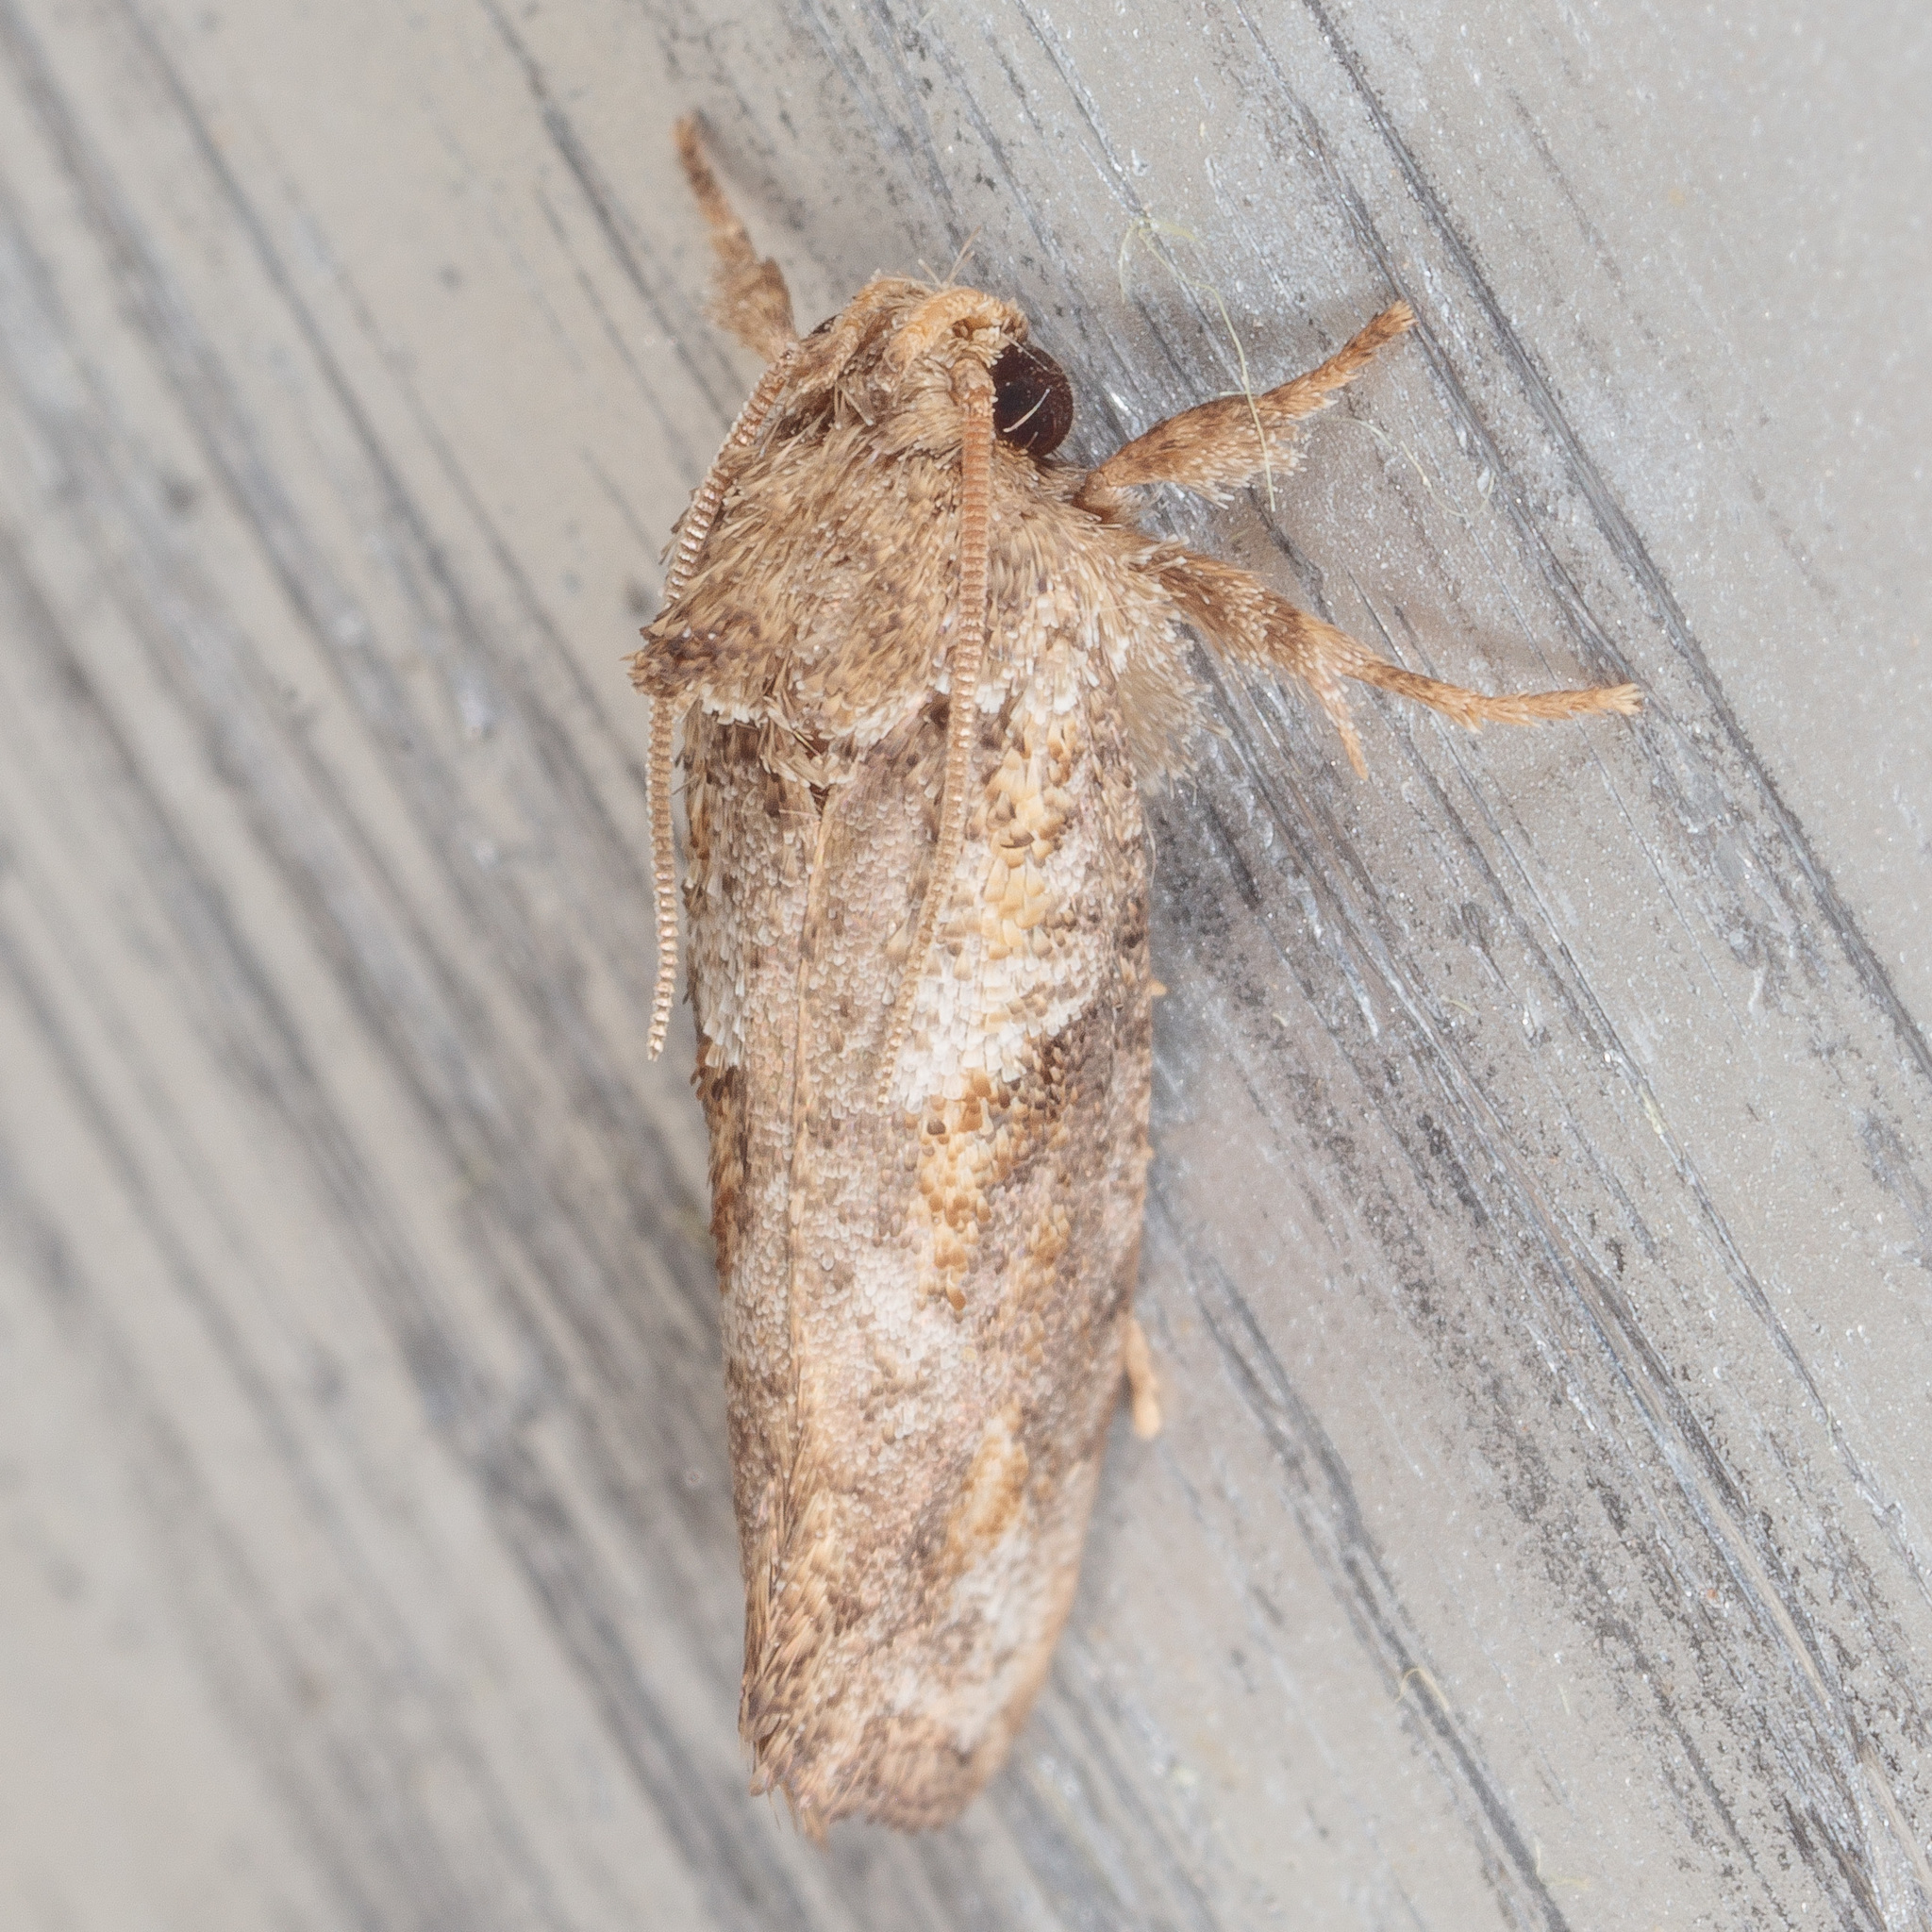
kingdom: Animalia
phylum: Arthropoda
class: Insecta
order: Lepidoptera
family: Tineidae
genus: Acrolophus
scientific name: Acrolophus piger
